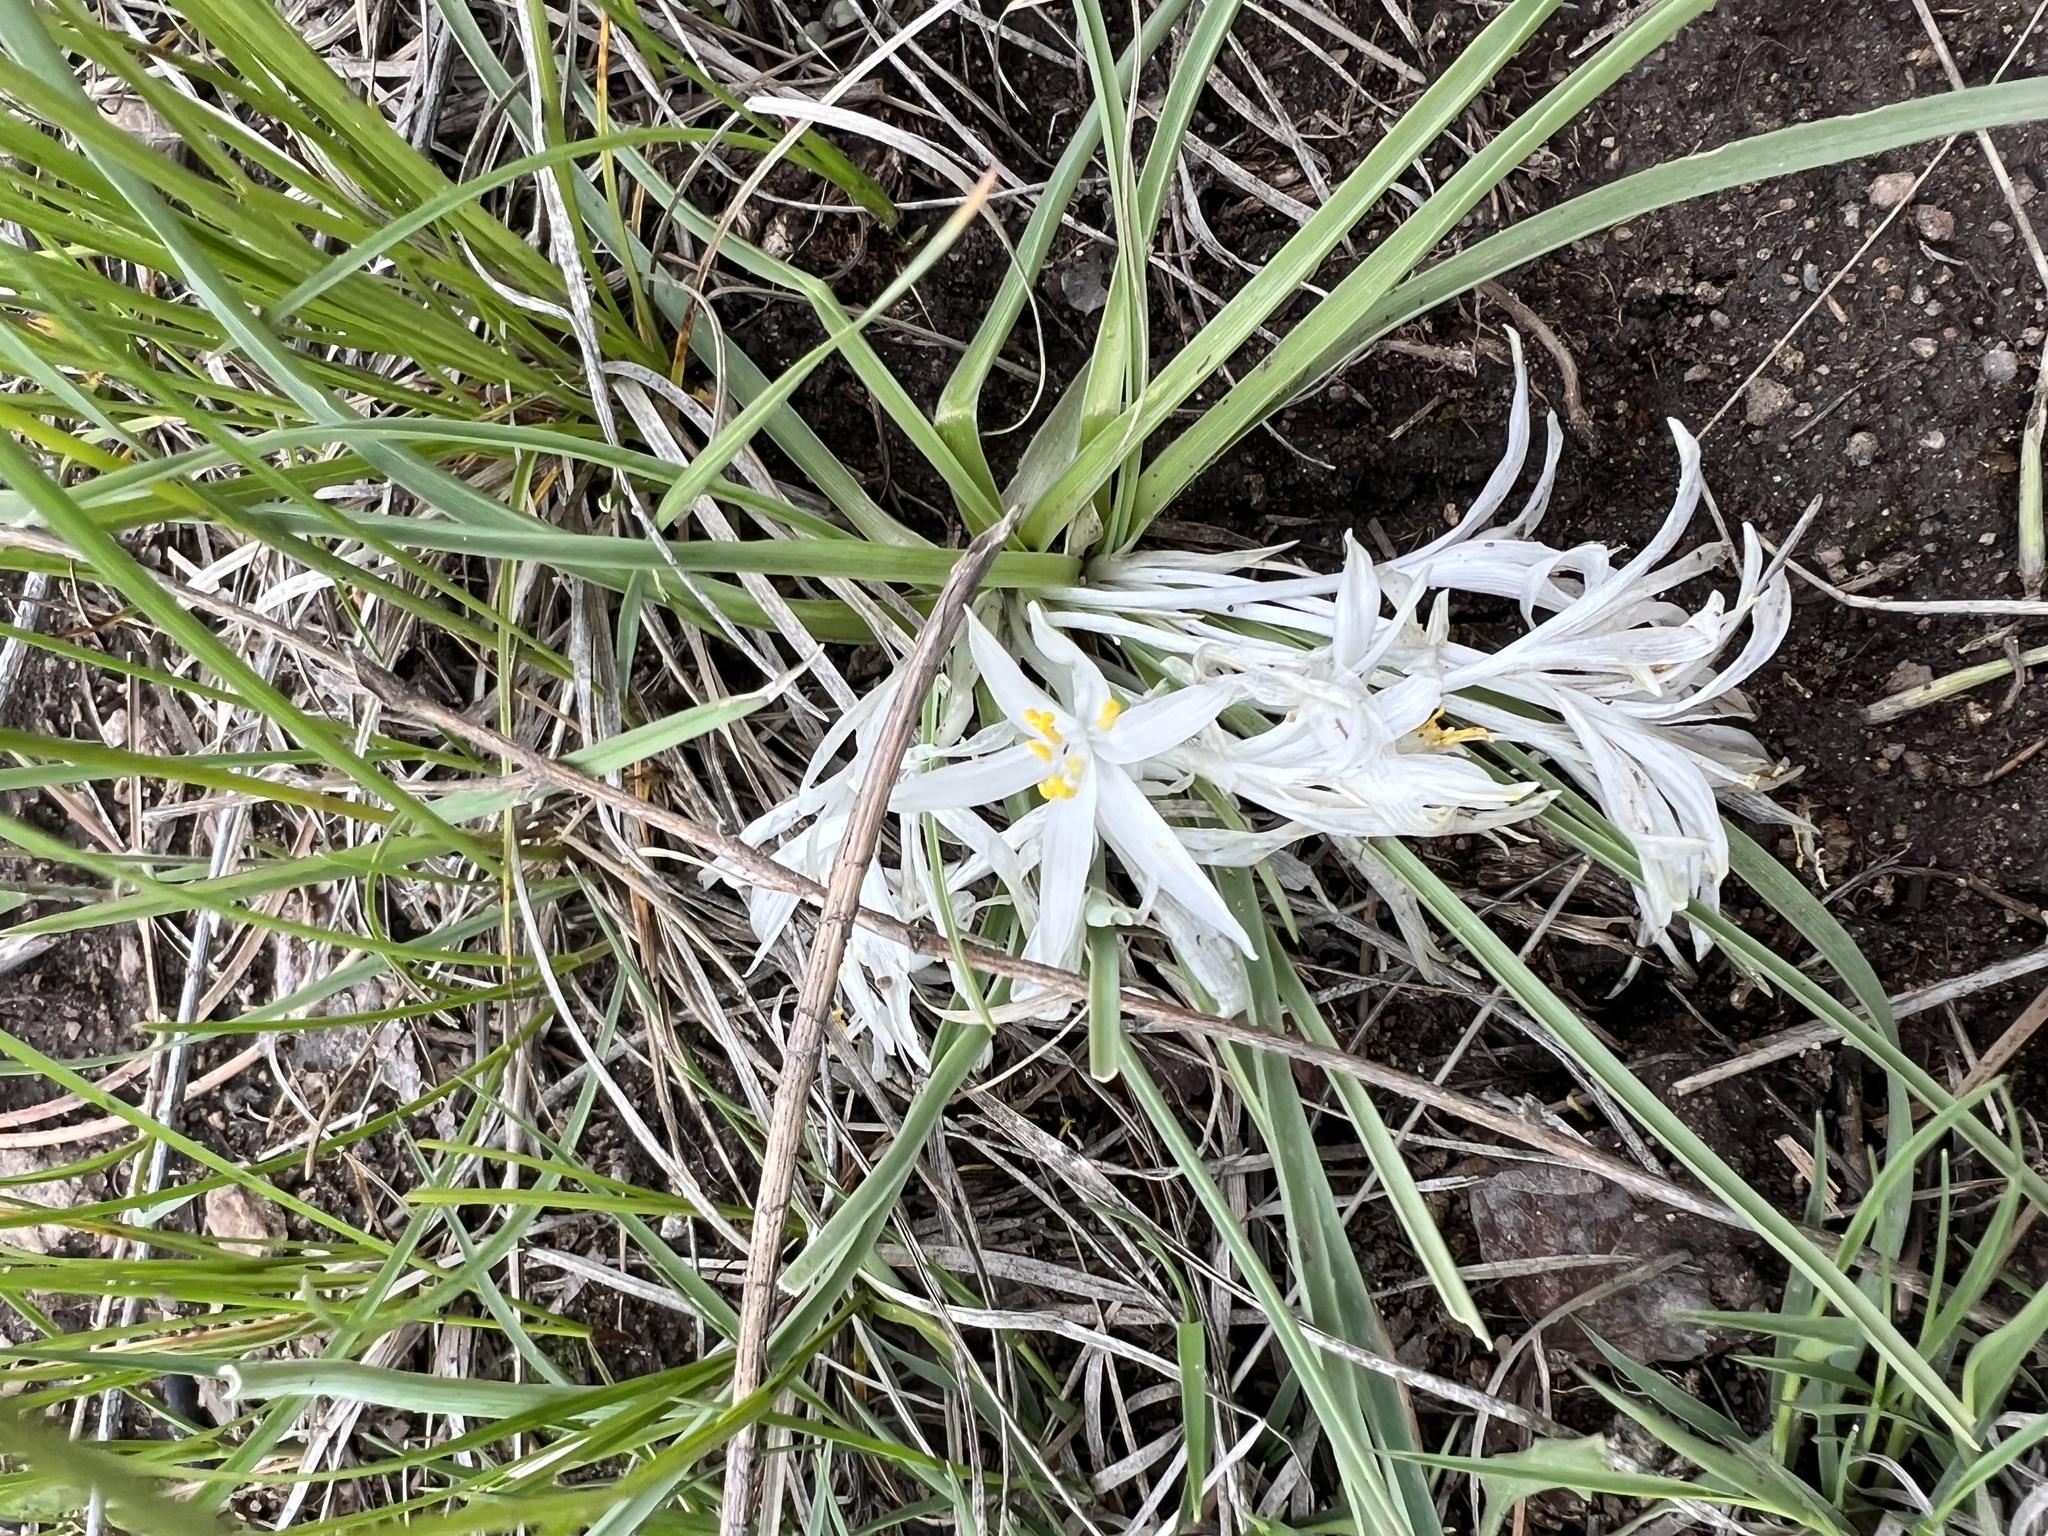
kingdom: Plantae
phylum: Tracheophyta
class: Liliopsida
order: Asparagales
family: Asparagaceae
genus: Leucocrinum
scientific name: Leucocrinum montanum
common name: Mountain-lily
